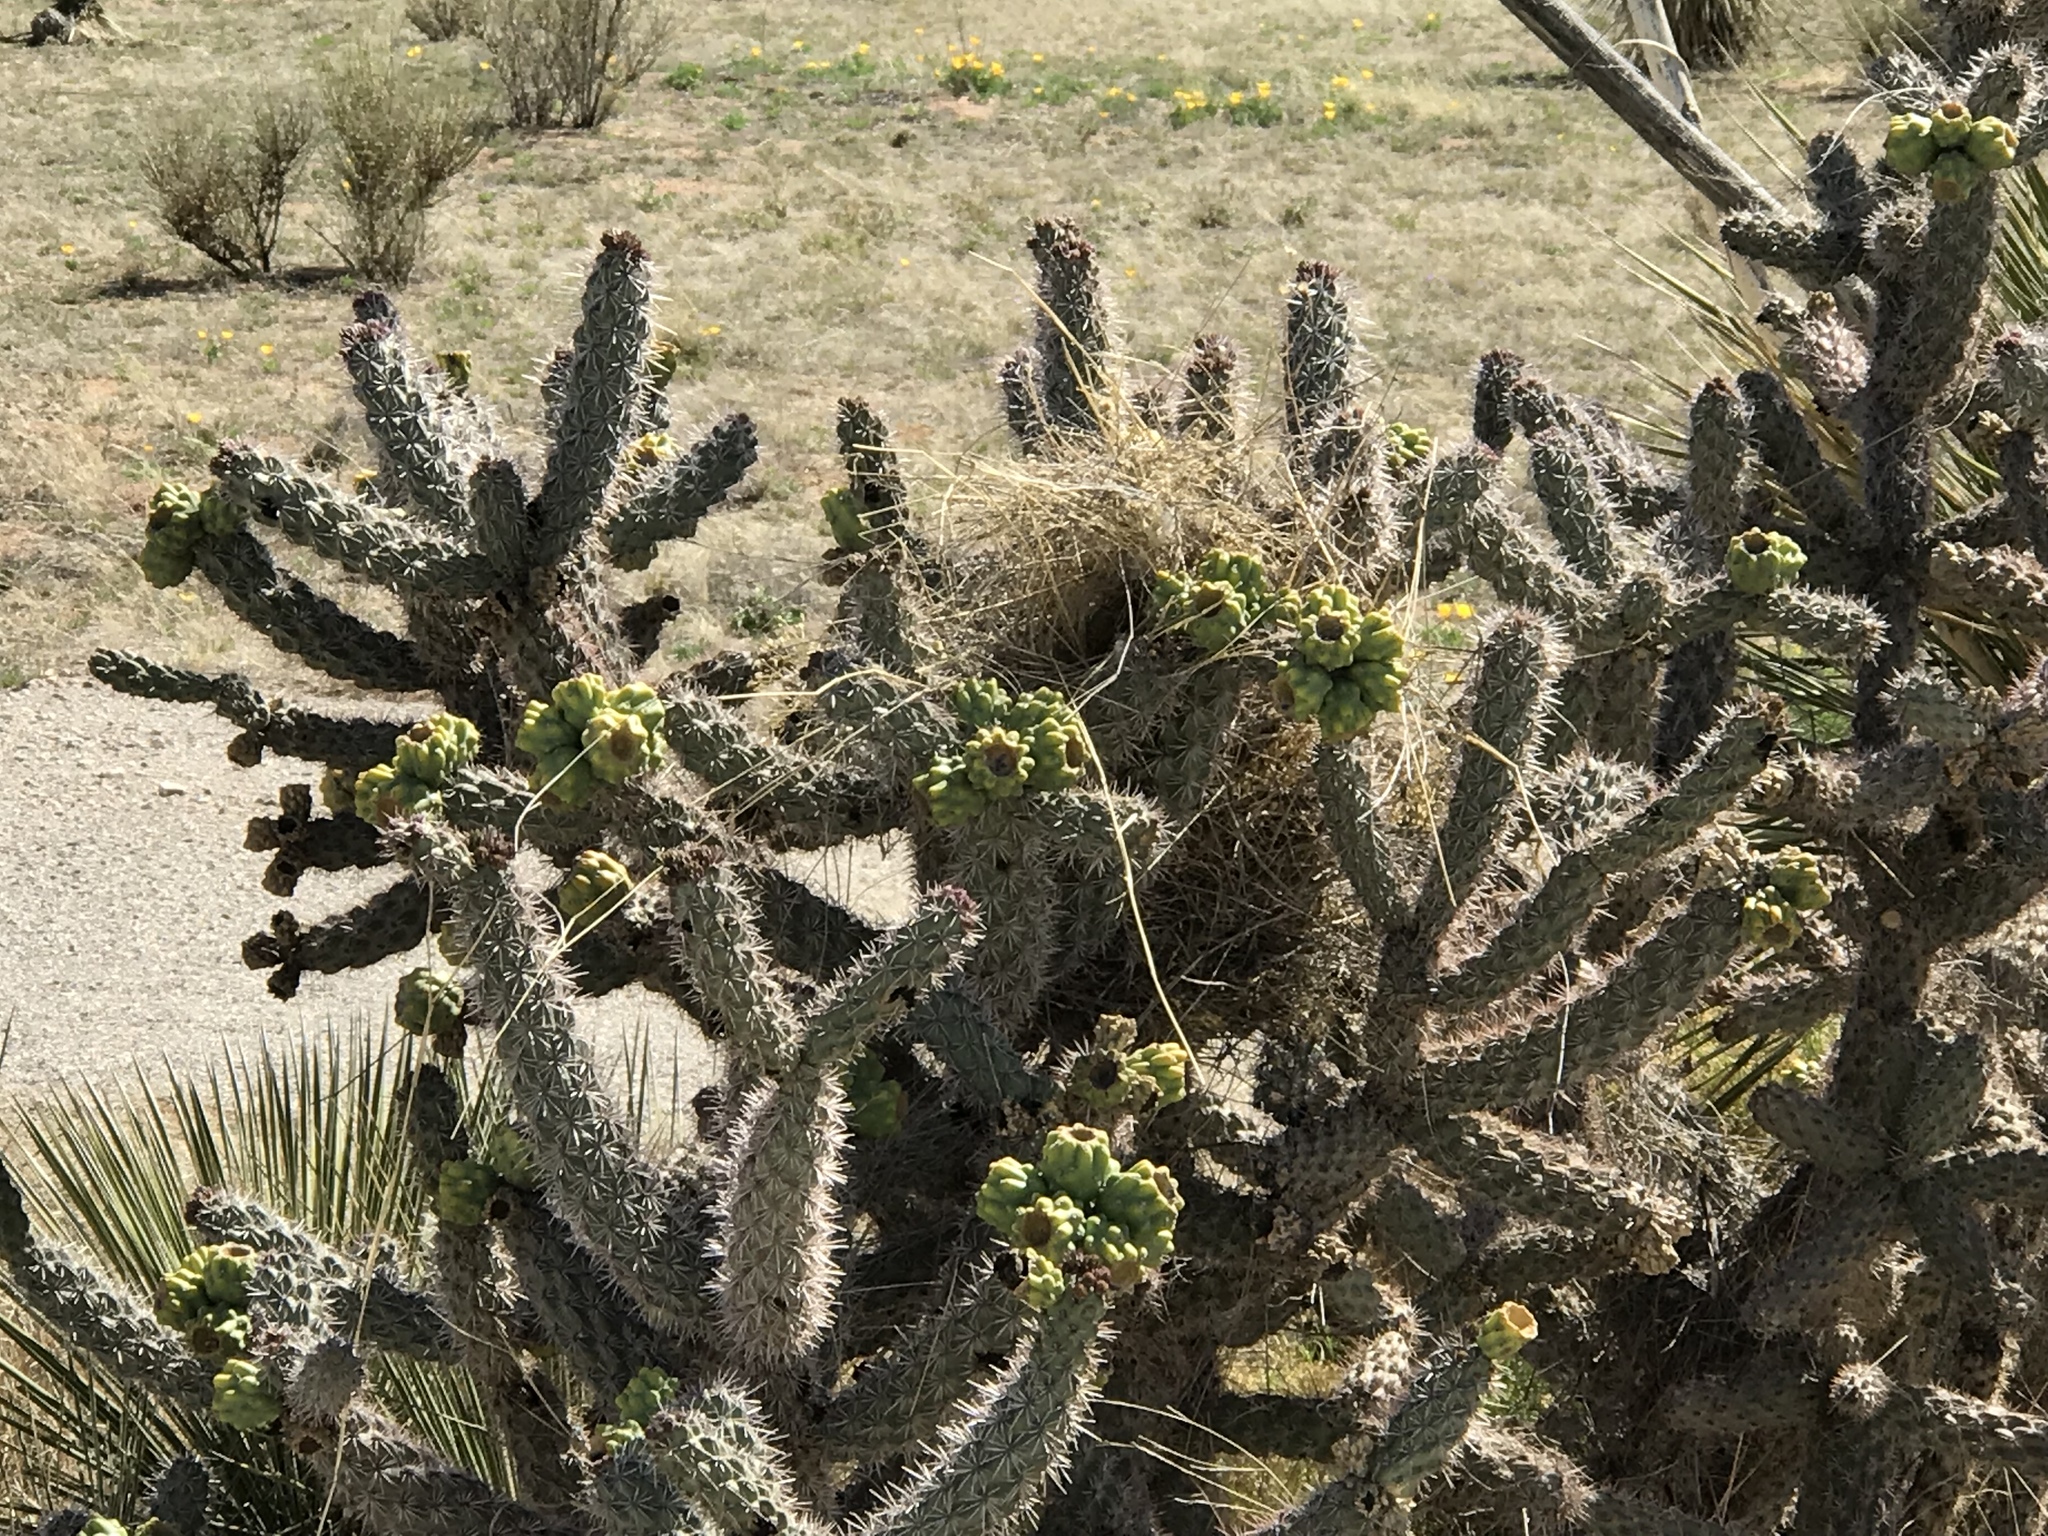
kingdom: Plantae
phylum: Tracheophyta
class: Magnoliopsida
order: Caryophyllales
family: Cactaceae
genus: Cylindropuntia
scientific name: Cylindropuntia imbricata
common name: Candelabrum cactus
